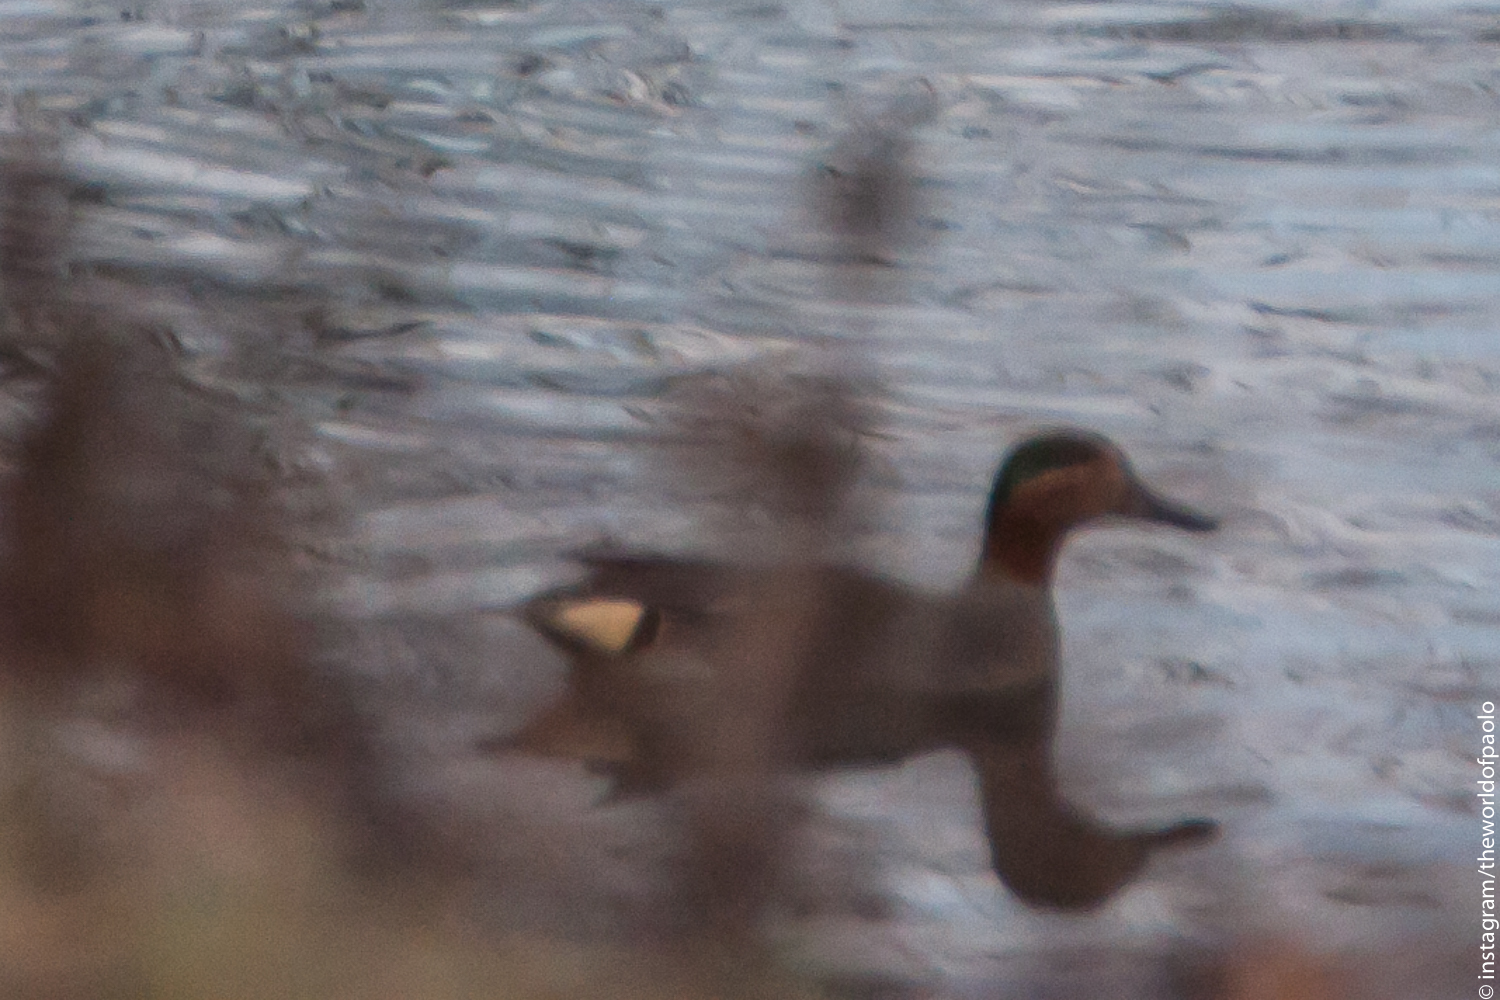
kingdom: Animalia
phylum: Chordata
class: Aves
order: Anseriformes
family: Anatidae
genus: Anas
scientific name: Anas crecca
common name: Eurasian teal
